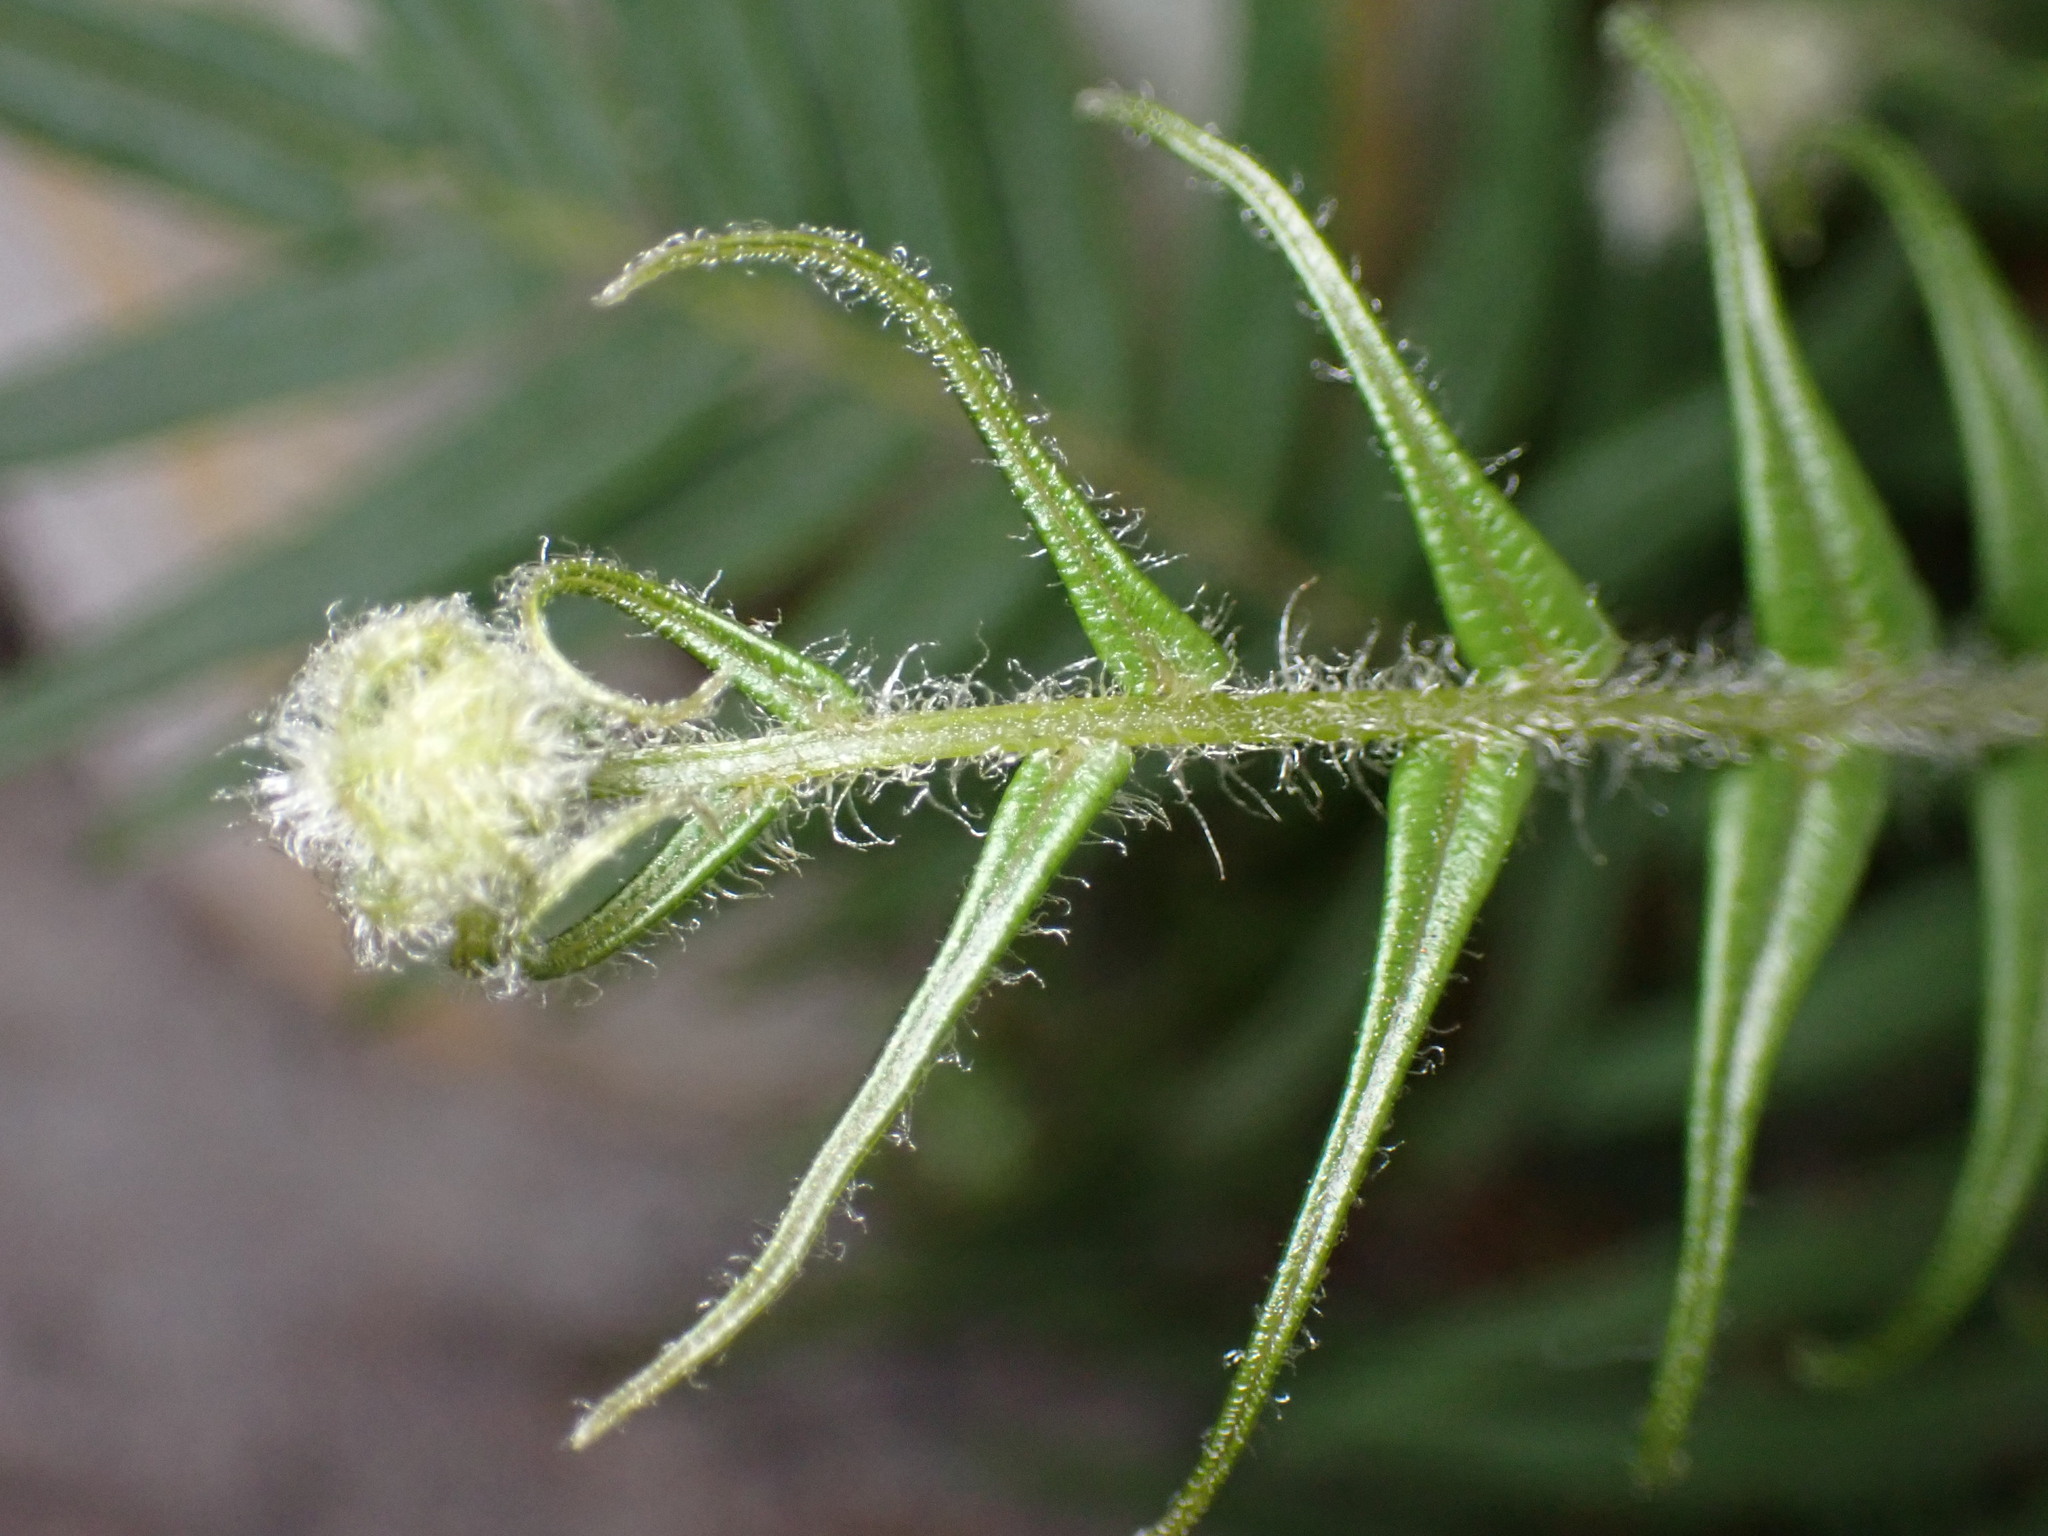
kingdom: Plantae
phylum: Tracheophyta
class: Polypodiopsida
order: Polypodiales
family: Pteridaceae
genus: Pteris
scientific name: Pteris vittata
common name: Ladder brake
